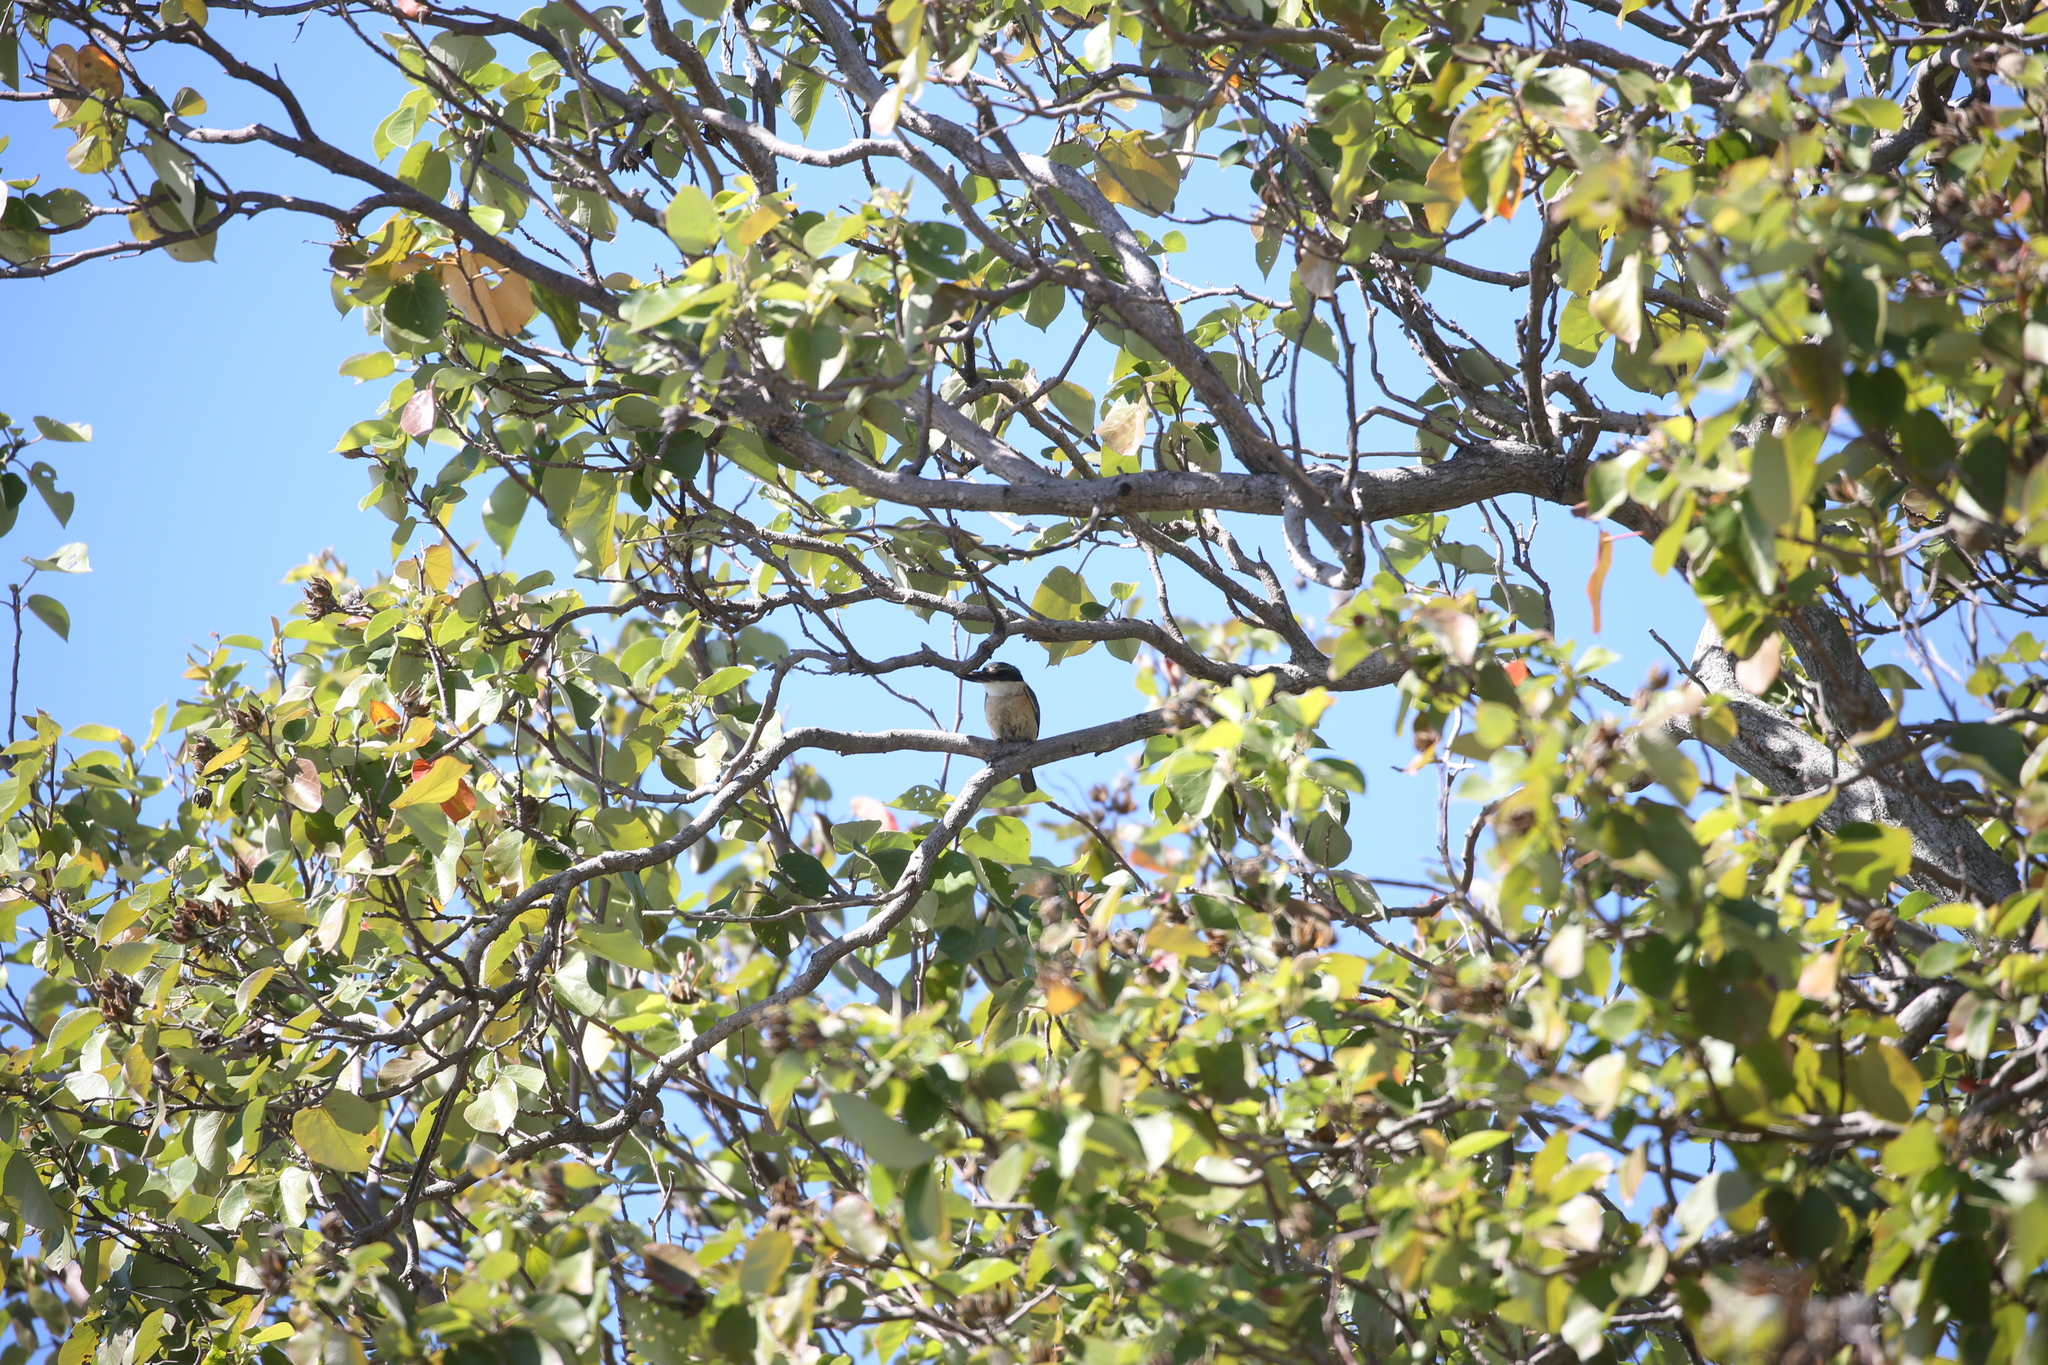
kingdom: Animalia
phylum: Chordata
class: Aves
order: Coraciiformes
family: Alcedinidae
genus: Todiramphus
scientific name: Todiramphus sanctus
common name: Sacred kingfisher
